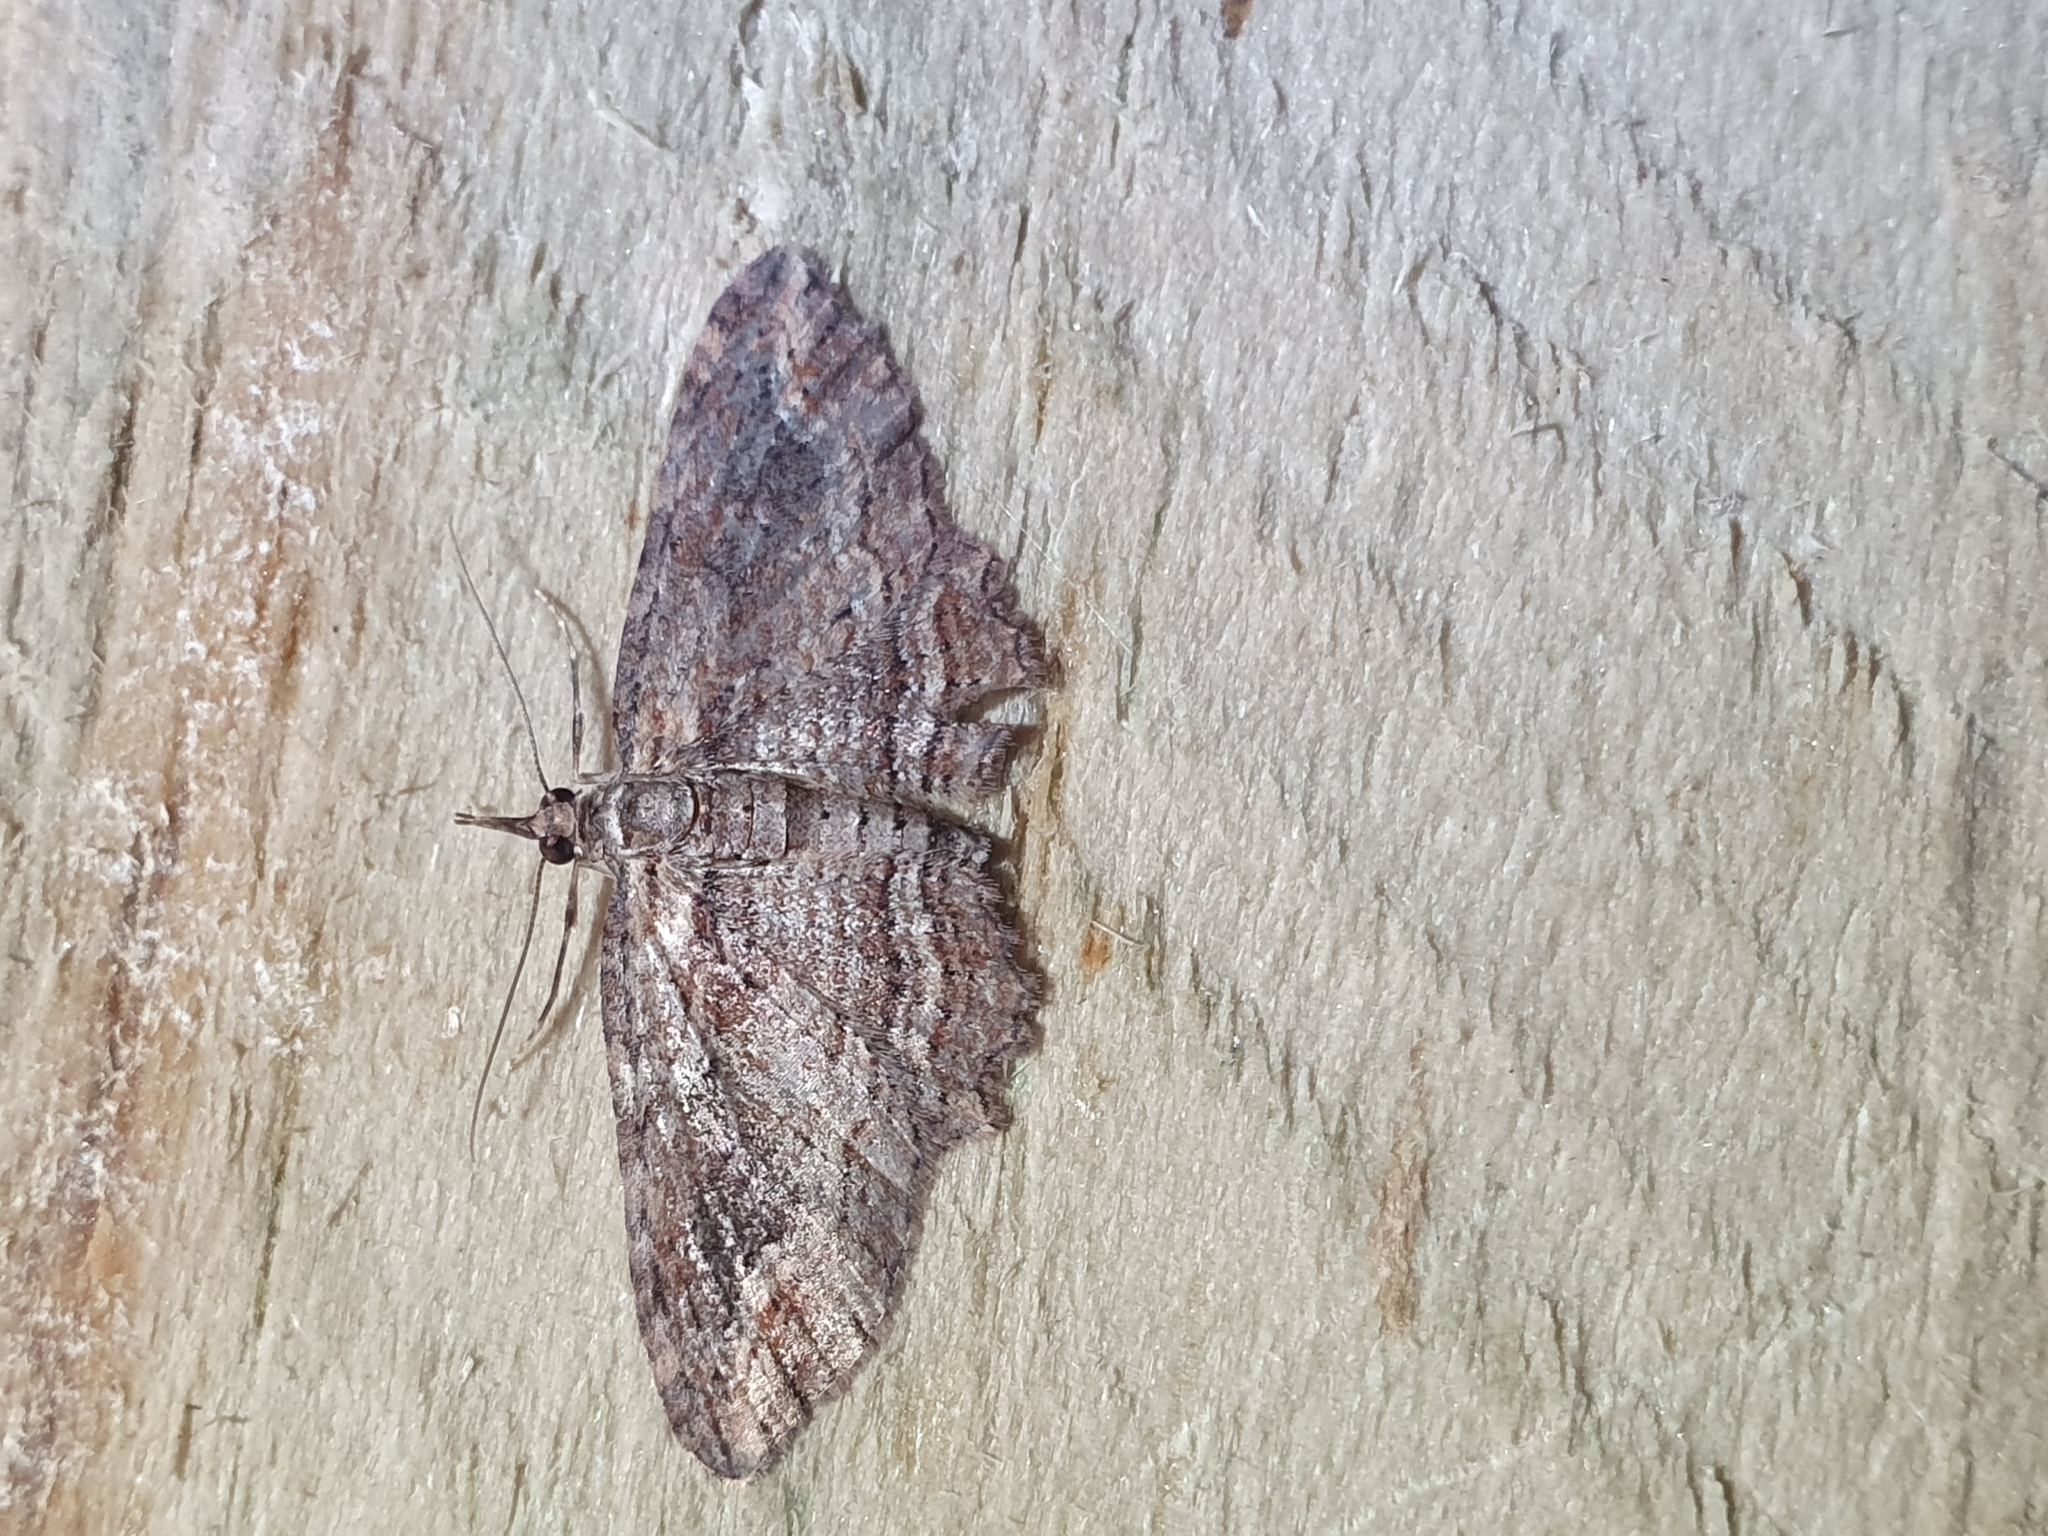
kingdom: Animalia
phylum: Arthropoda
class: Insecta
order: Lepidoptera
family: Geometridae
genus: Chloroclystis
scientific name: Chloroclystis filata
